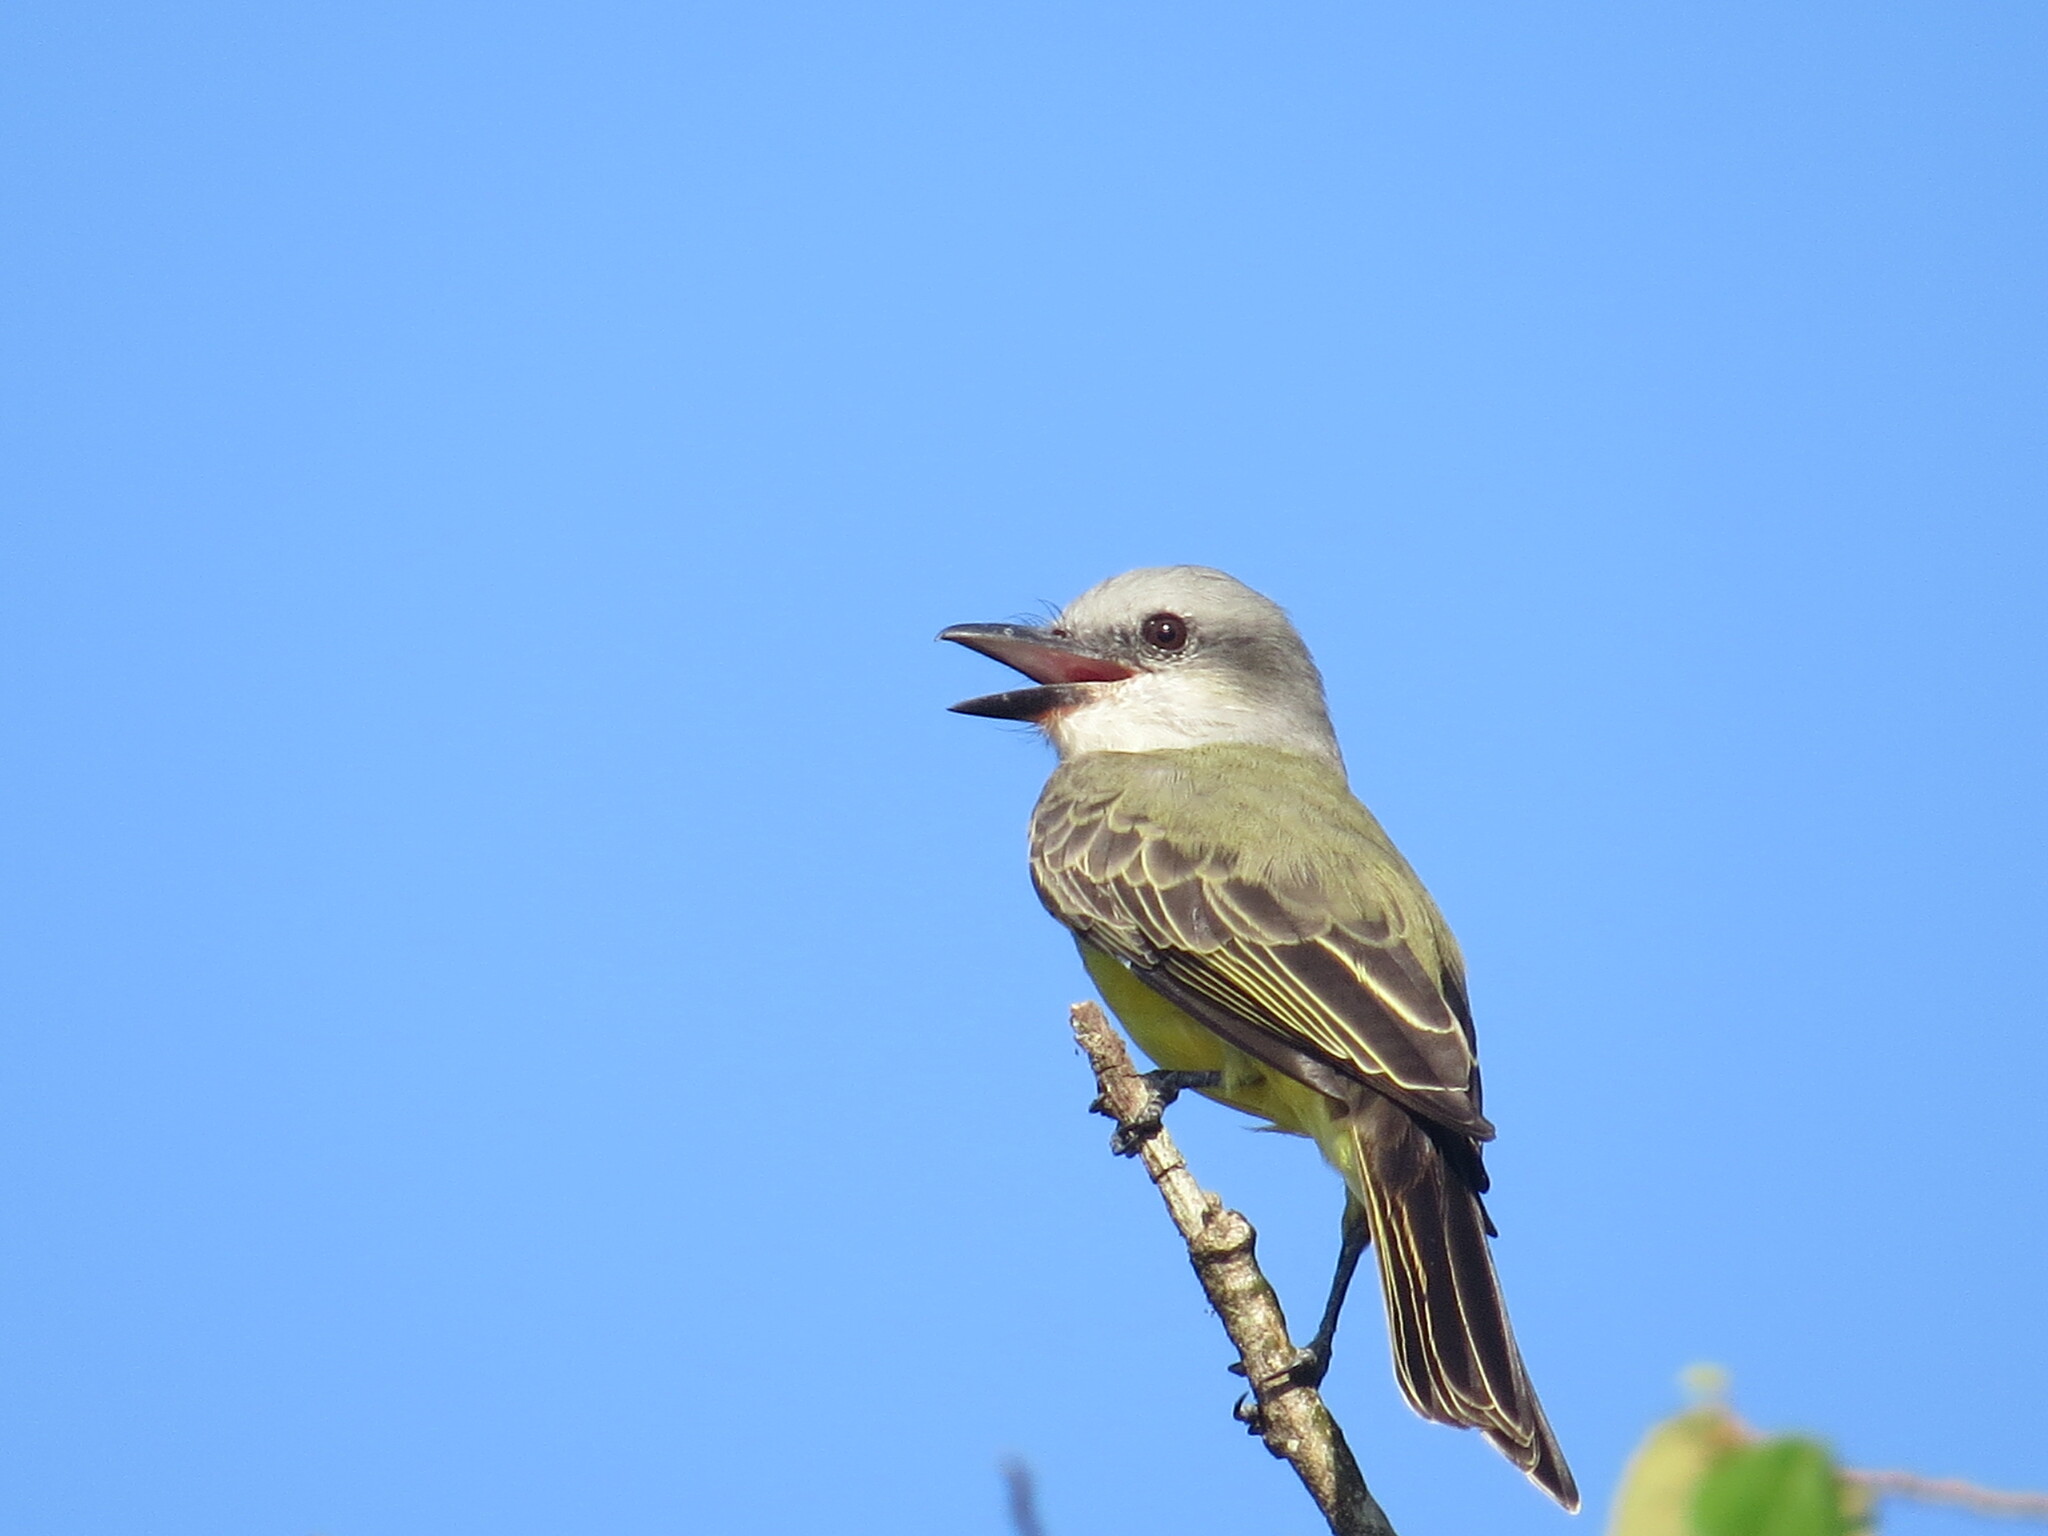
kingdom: Animalia
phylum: Chordata
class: Aves
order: Passeriformes
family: Tyrannidae
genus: Tyrannus
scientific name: Tyrannus melancholicus
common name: Tropical kingbird
